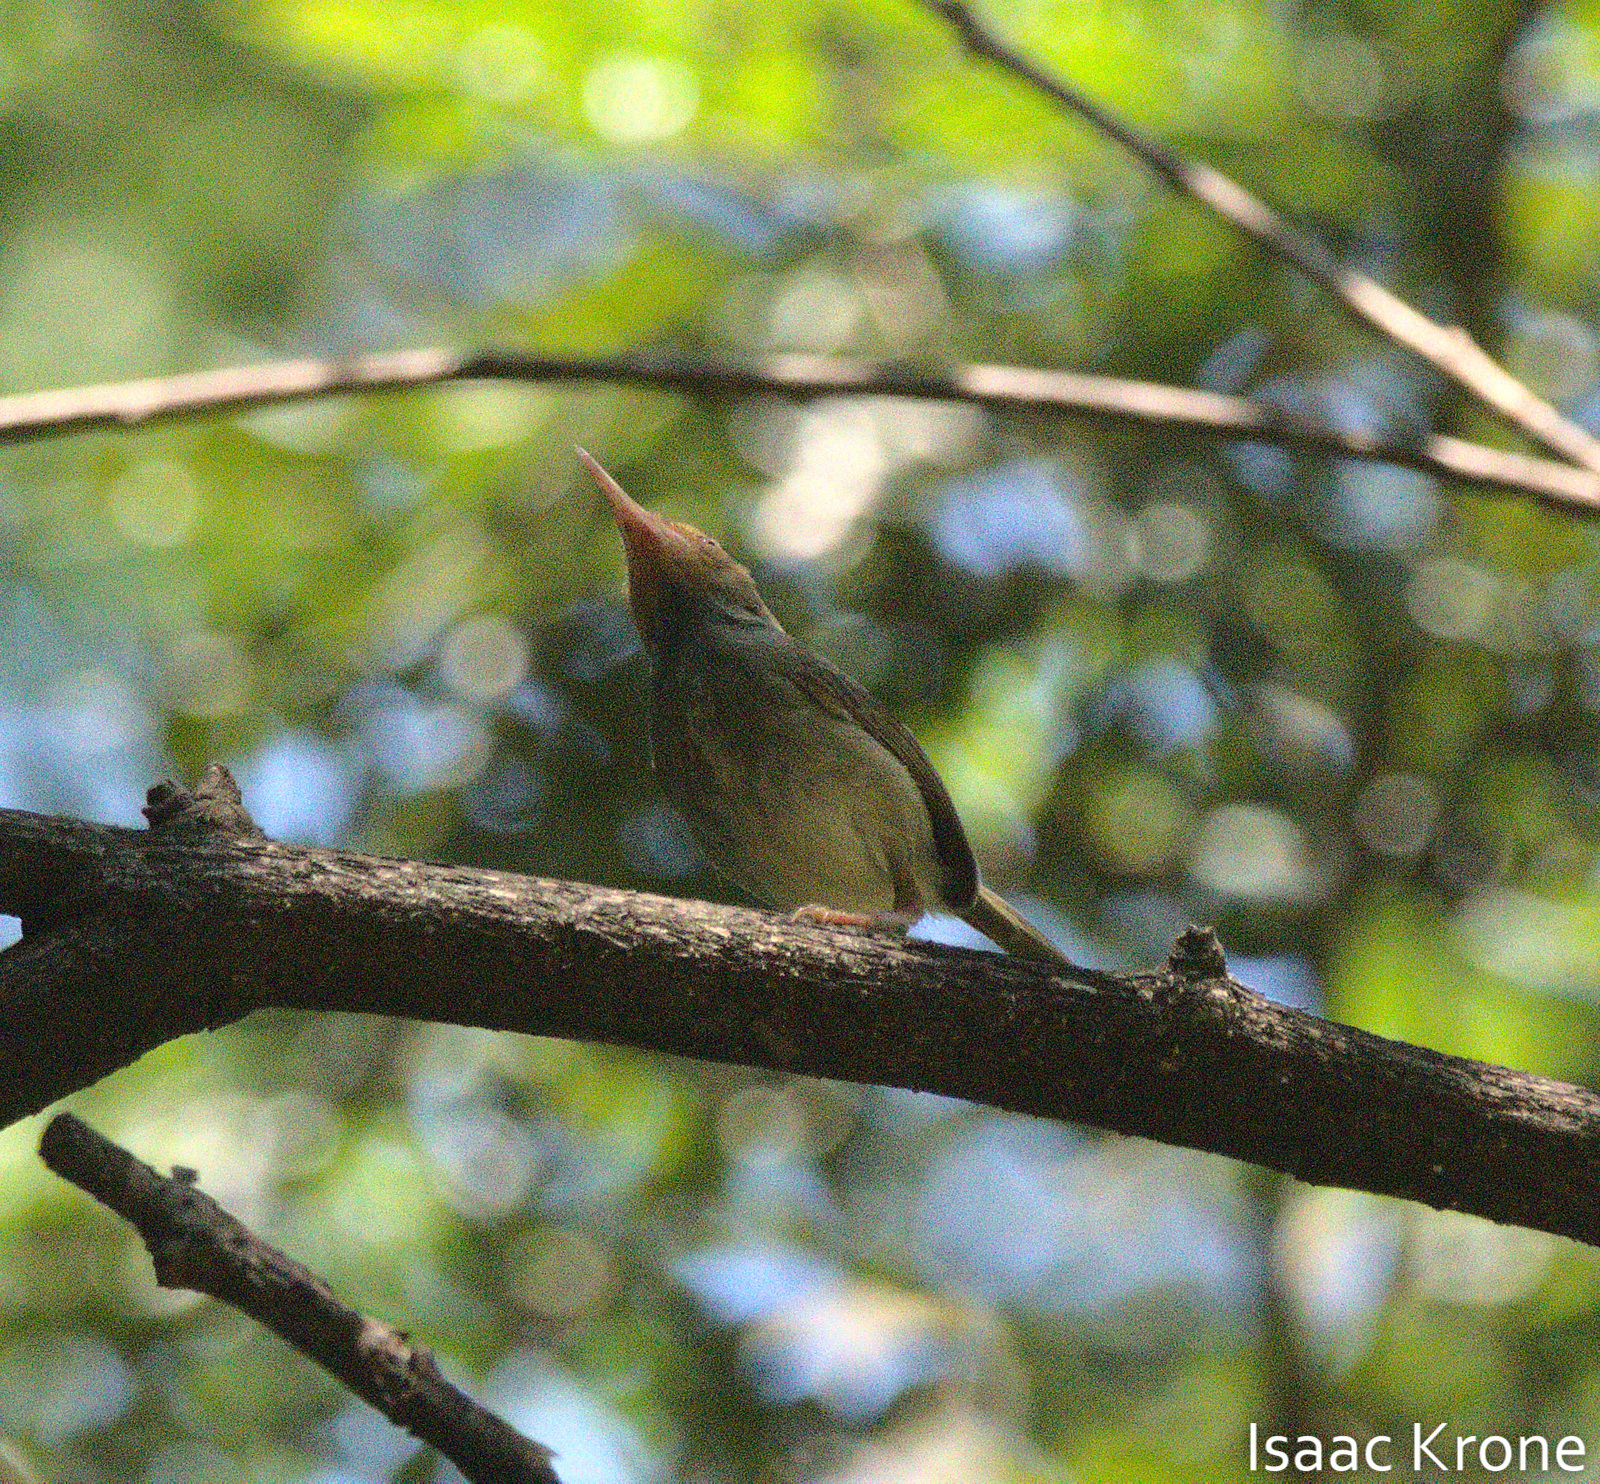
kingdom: Animalia
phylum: Chordata
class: Aves
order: Passeriformes
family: Cisticolidae
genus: Orthotomus
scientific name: Orthotomus sepium
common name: Olive-backed tailorbird
